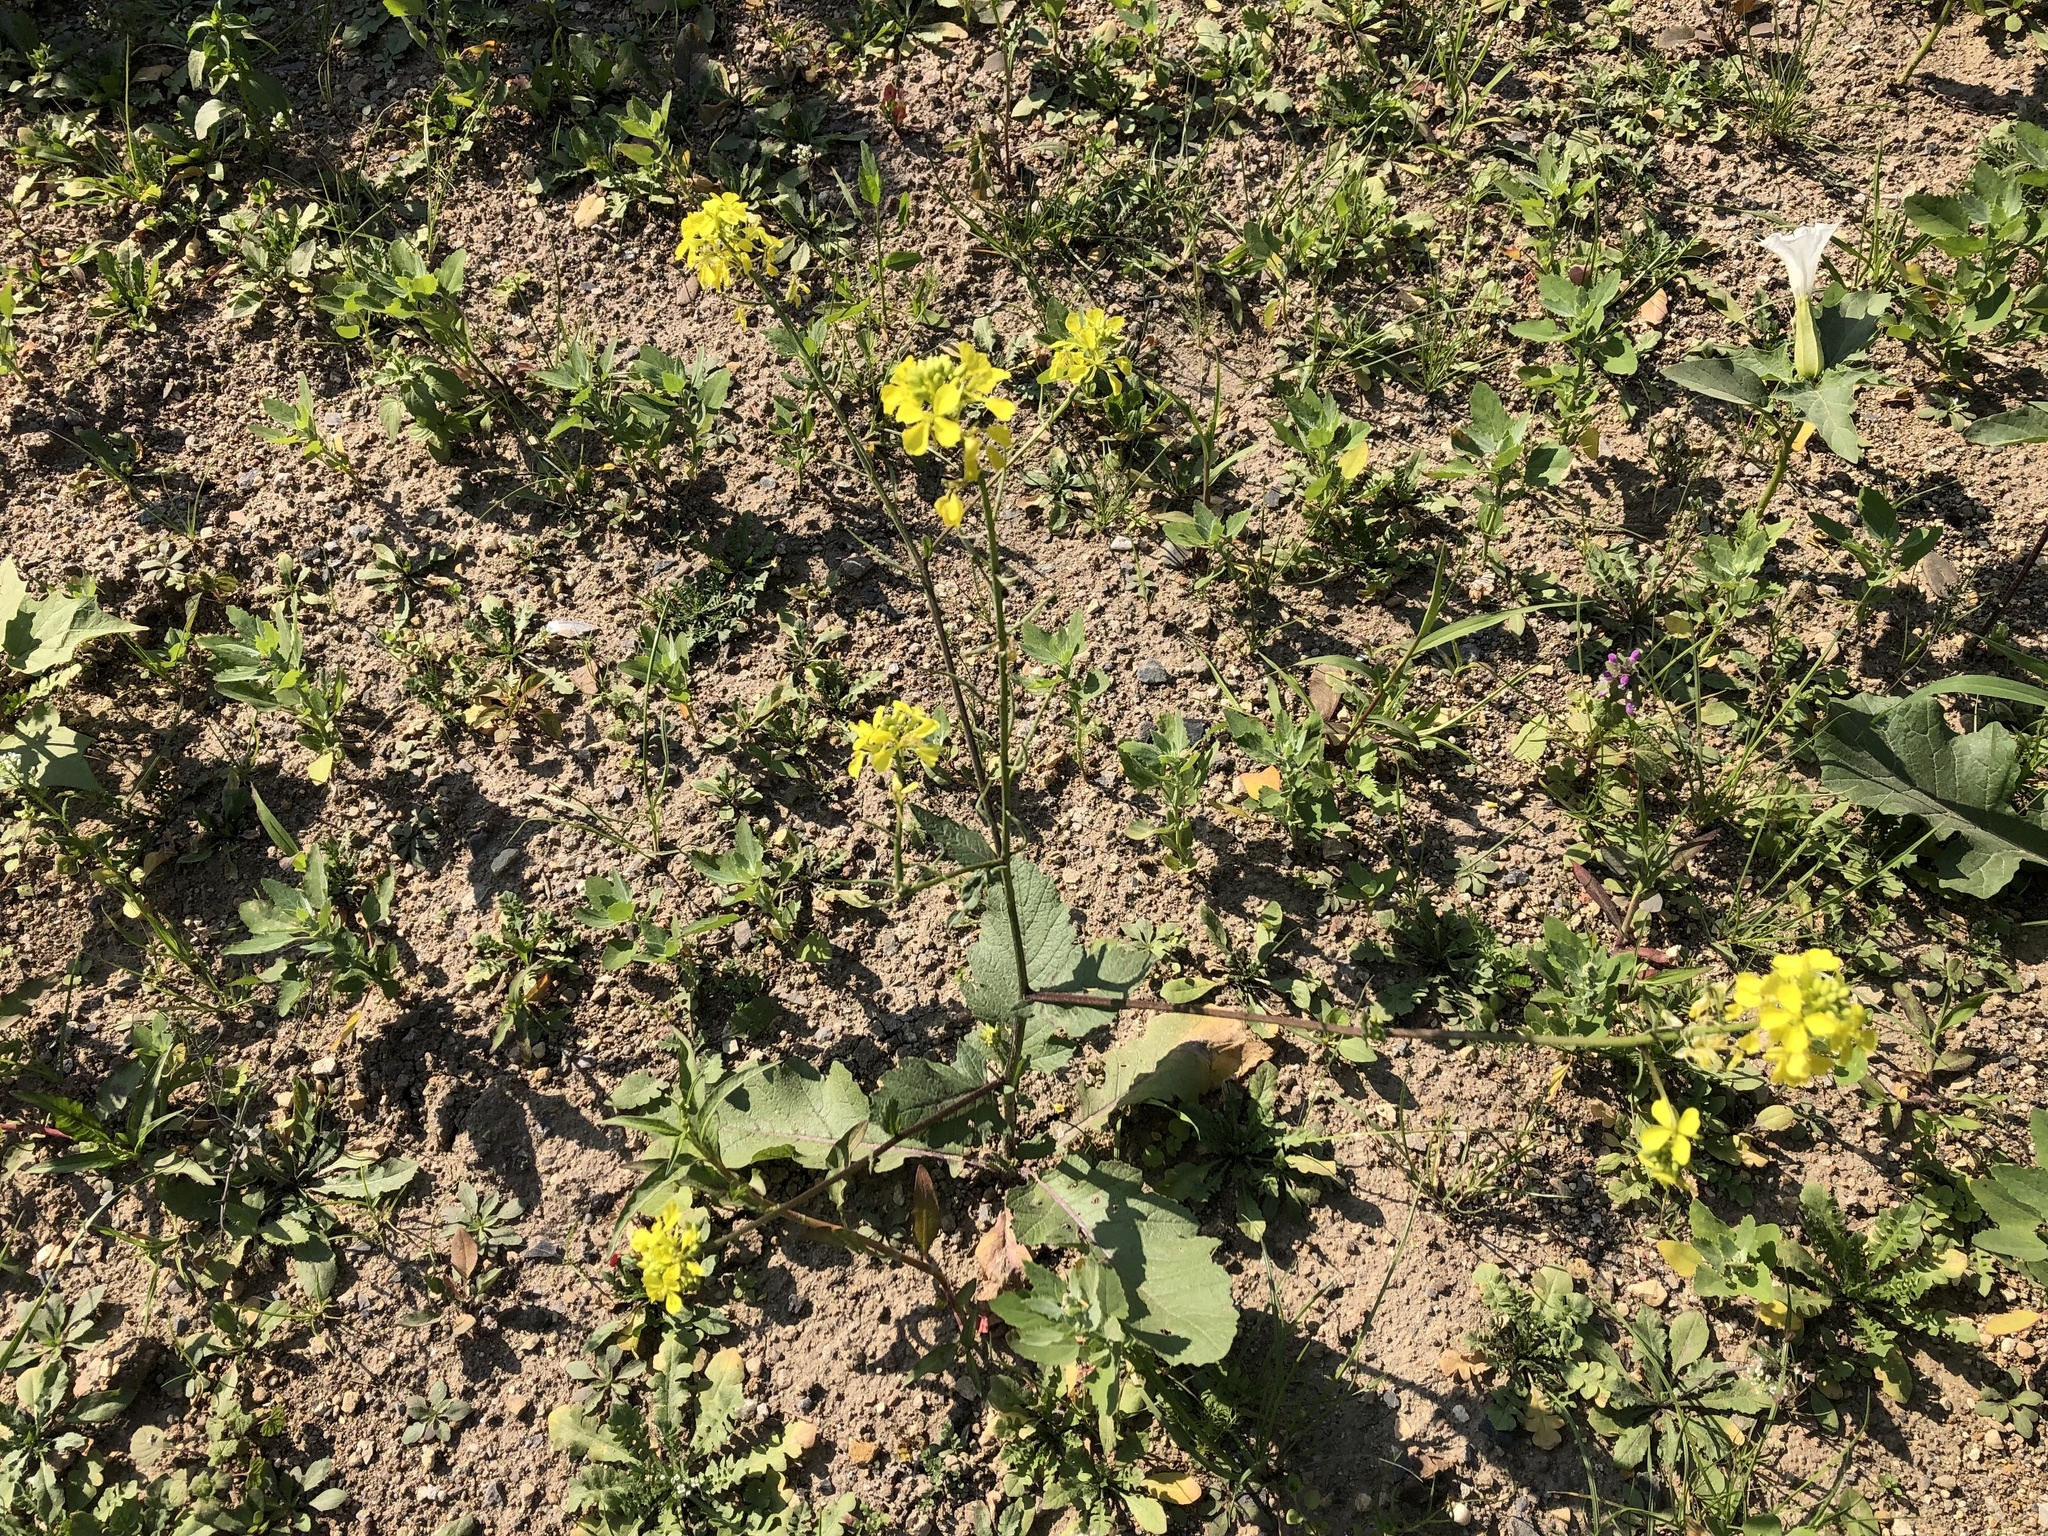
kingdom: Plantae
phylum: Tracheophyta
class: Magnoliopsida
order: Brassicales
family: Brassicaceae
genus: Sinapis
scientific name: Sinapis arvensis
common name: Charlock
